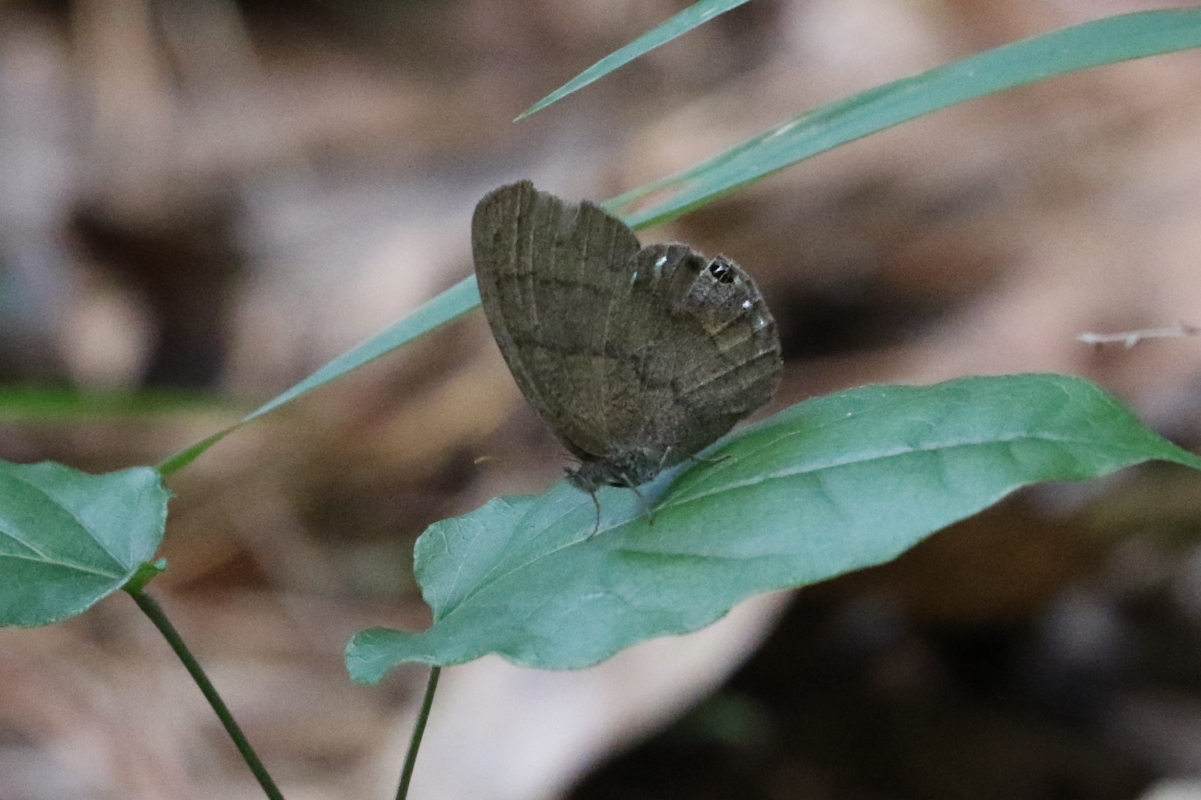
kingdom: Animalia
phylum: Arthropoda
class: Insecta
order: Lepidoptera
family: Nymphalidae
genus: Euptychia
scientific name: Euptychia cornelius
